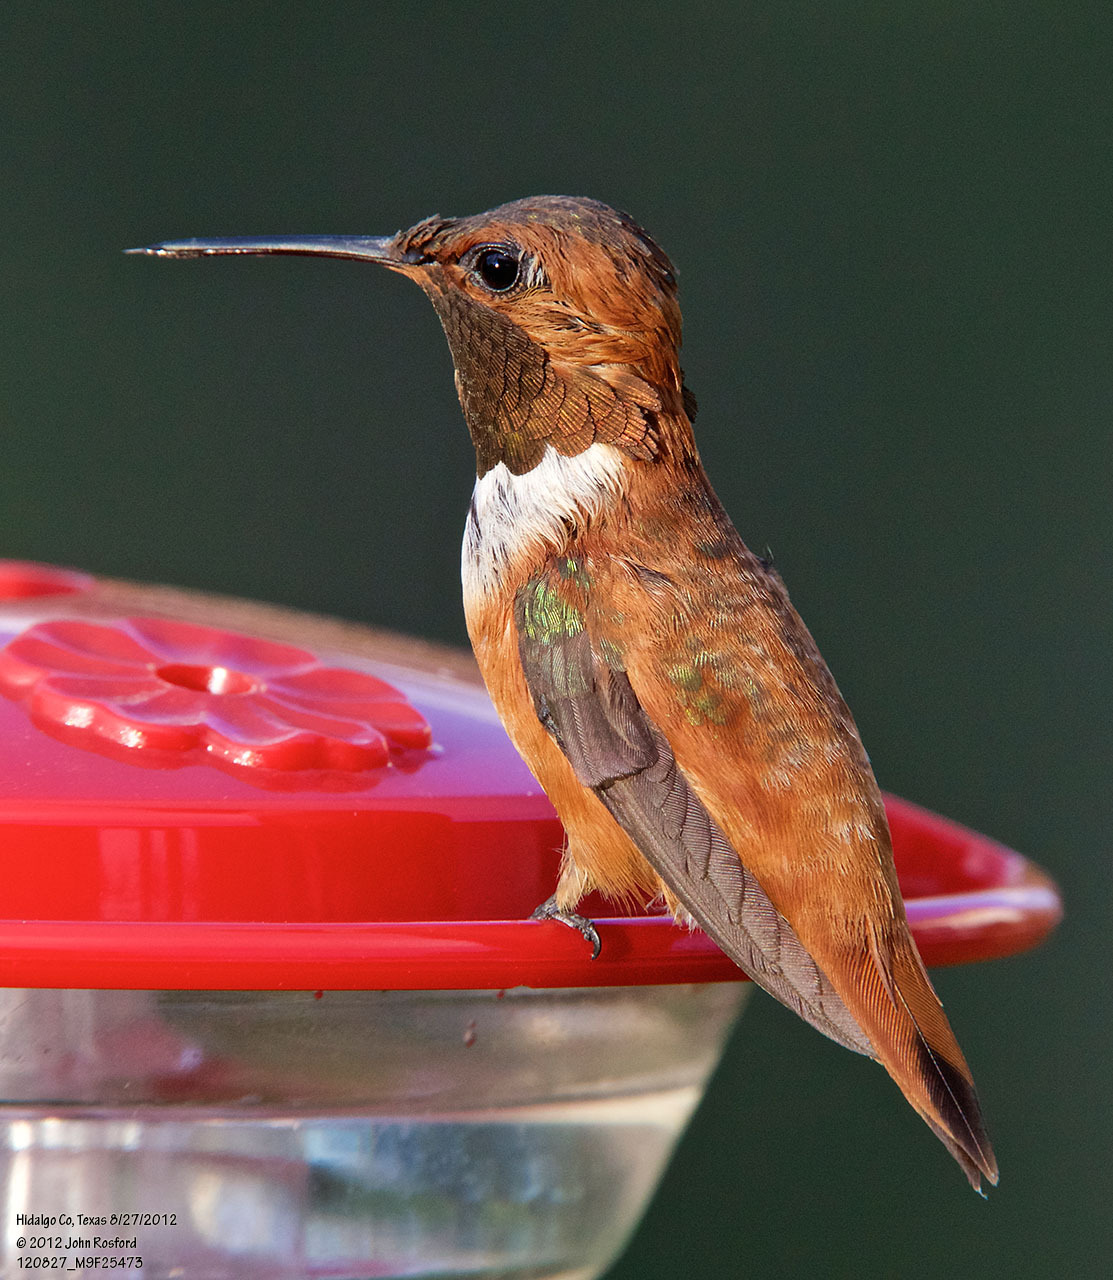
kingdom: Animalia
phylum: Chordata
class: Aves
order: Apodiformes
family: Trochilidae
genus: Selasphorus
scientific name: Selasphorus rufus
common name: Rufous hummingbird
